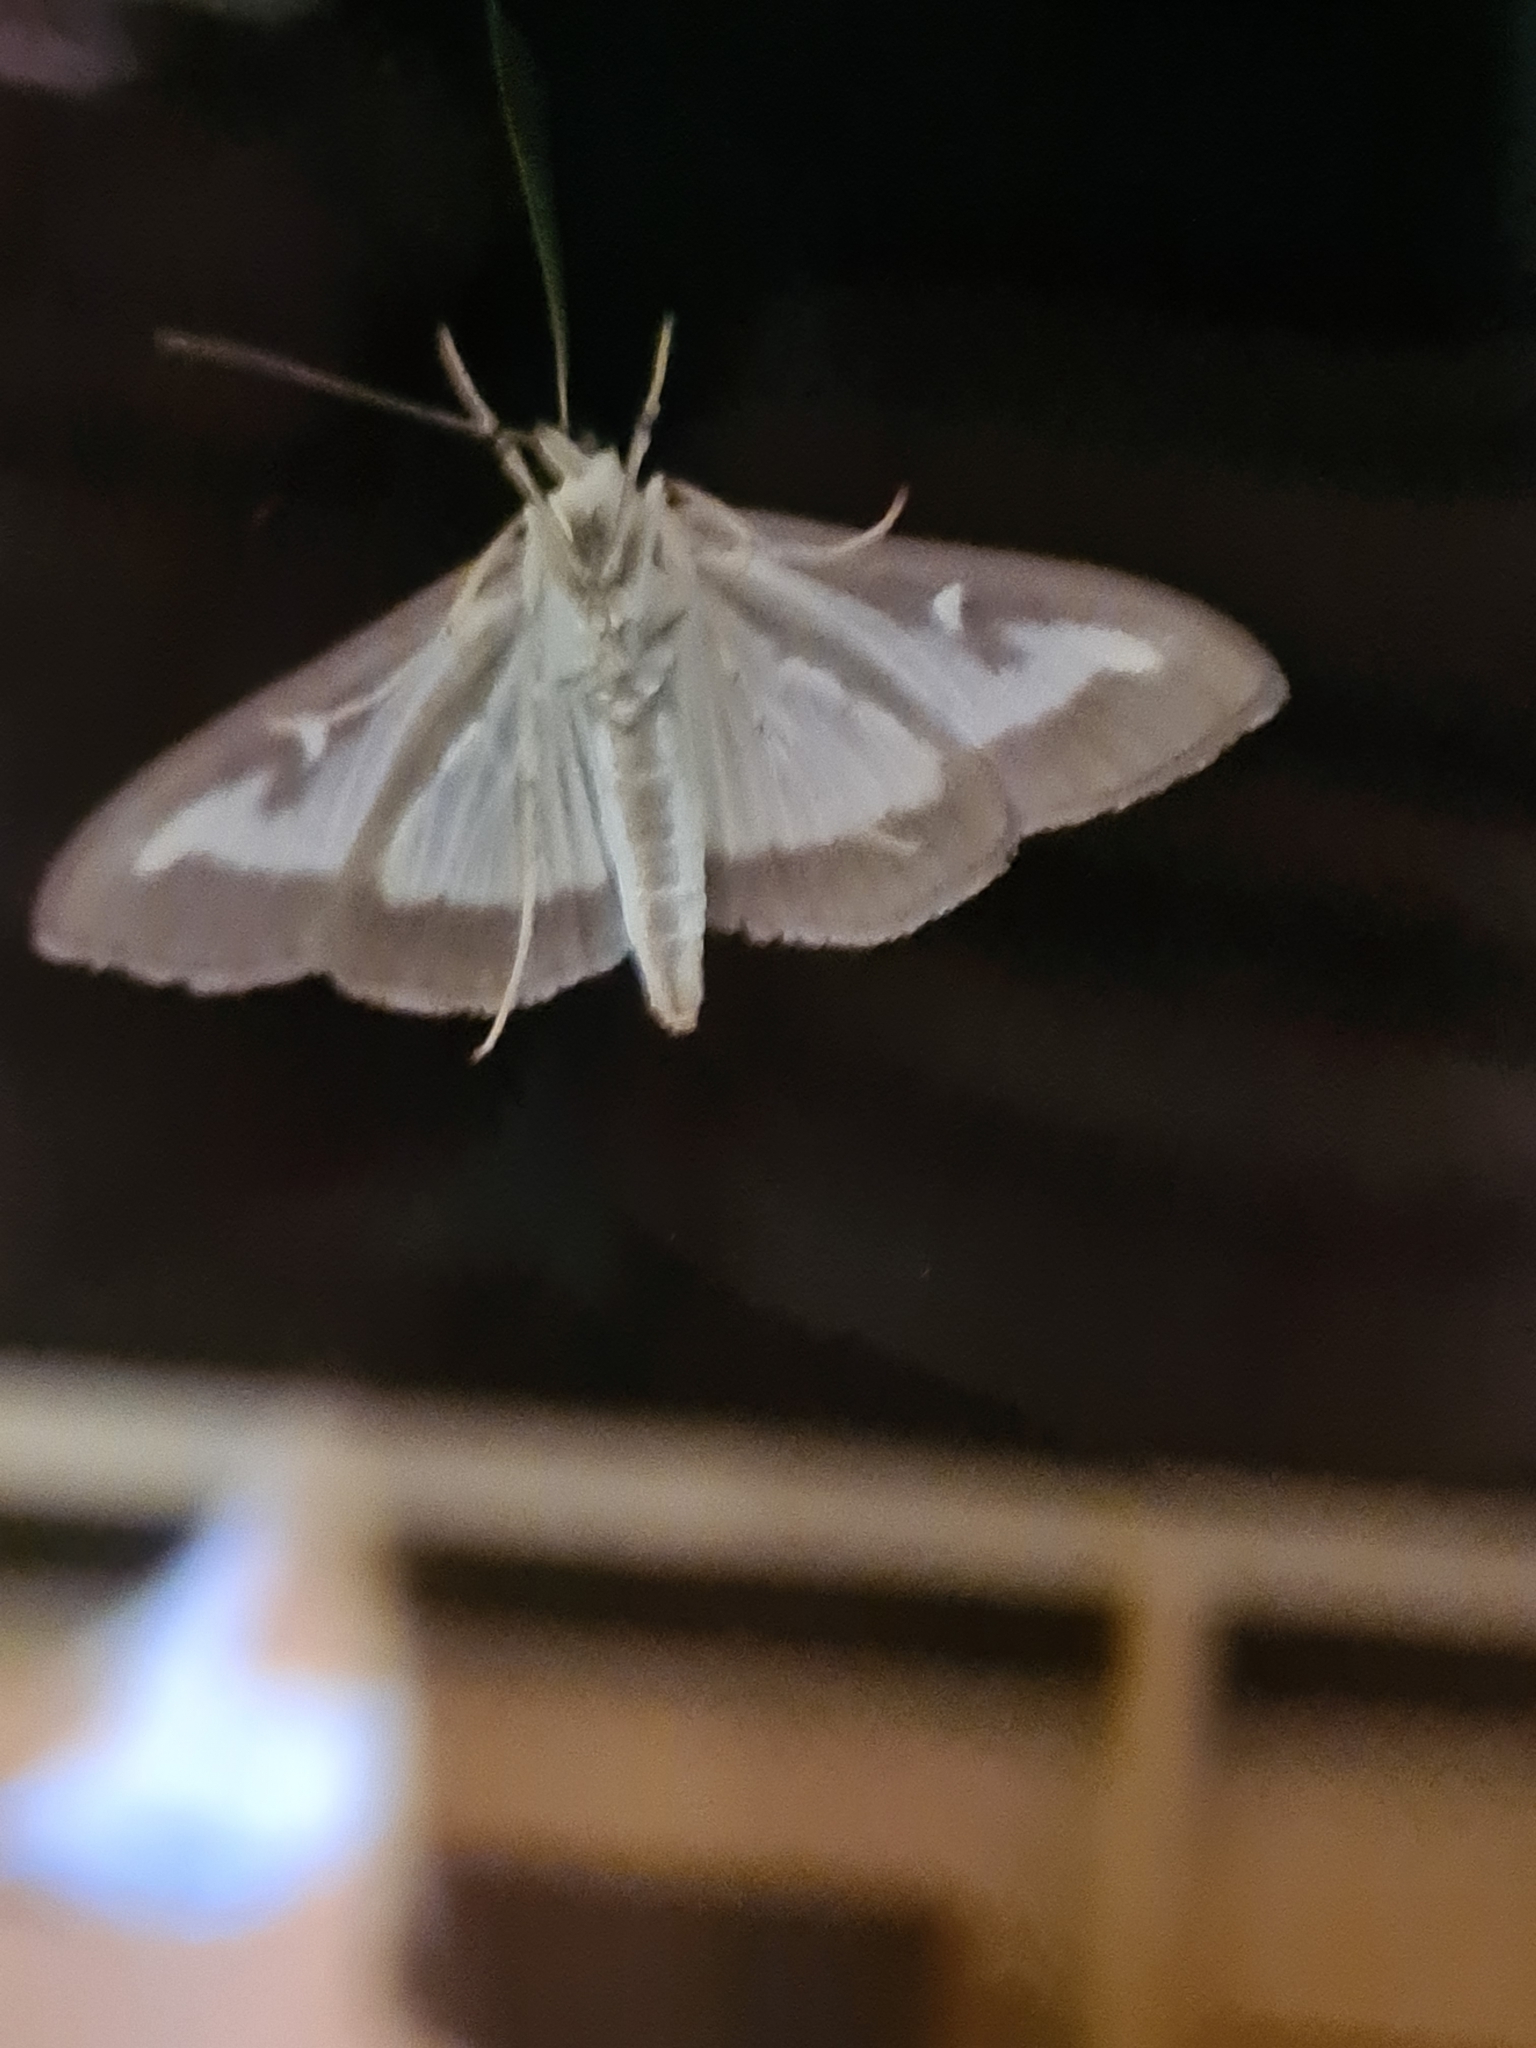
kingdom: Animalia
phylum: Arthropoda
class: Insecta
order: Lepidoptera
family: Crambidae
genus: Cydalima
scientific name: Cydalima perspectalis
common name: Box tree moth
